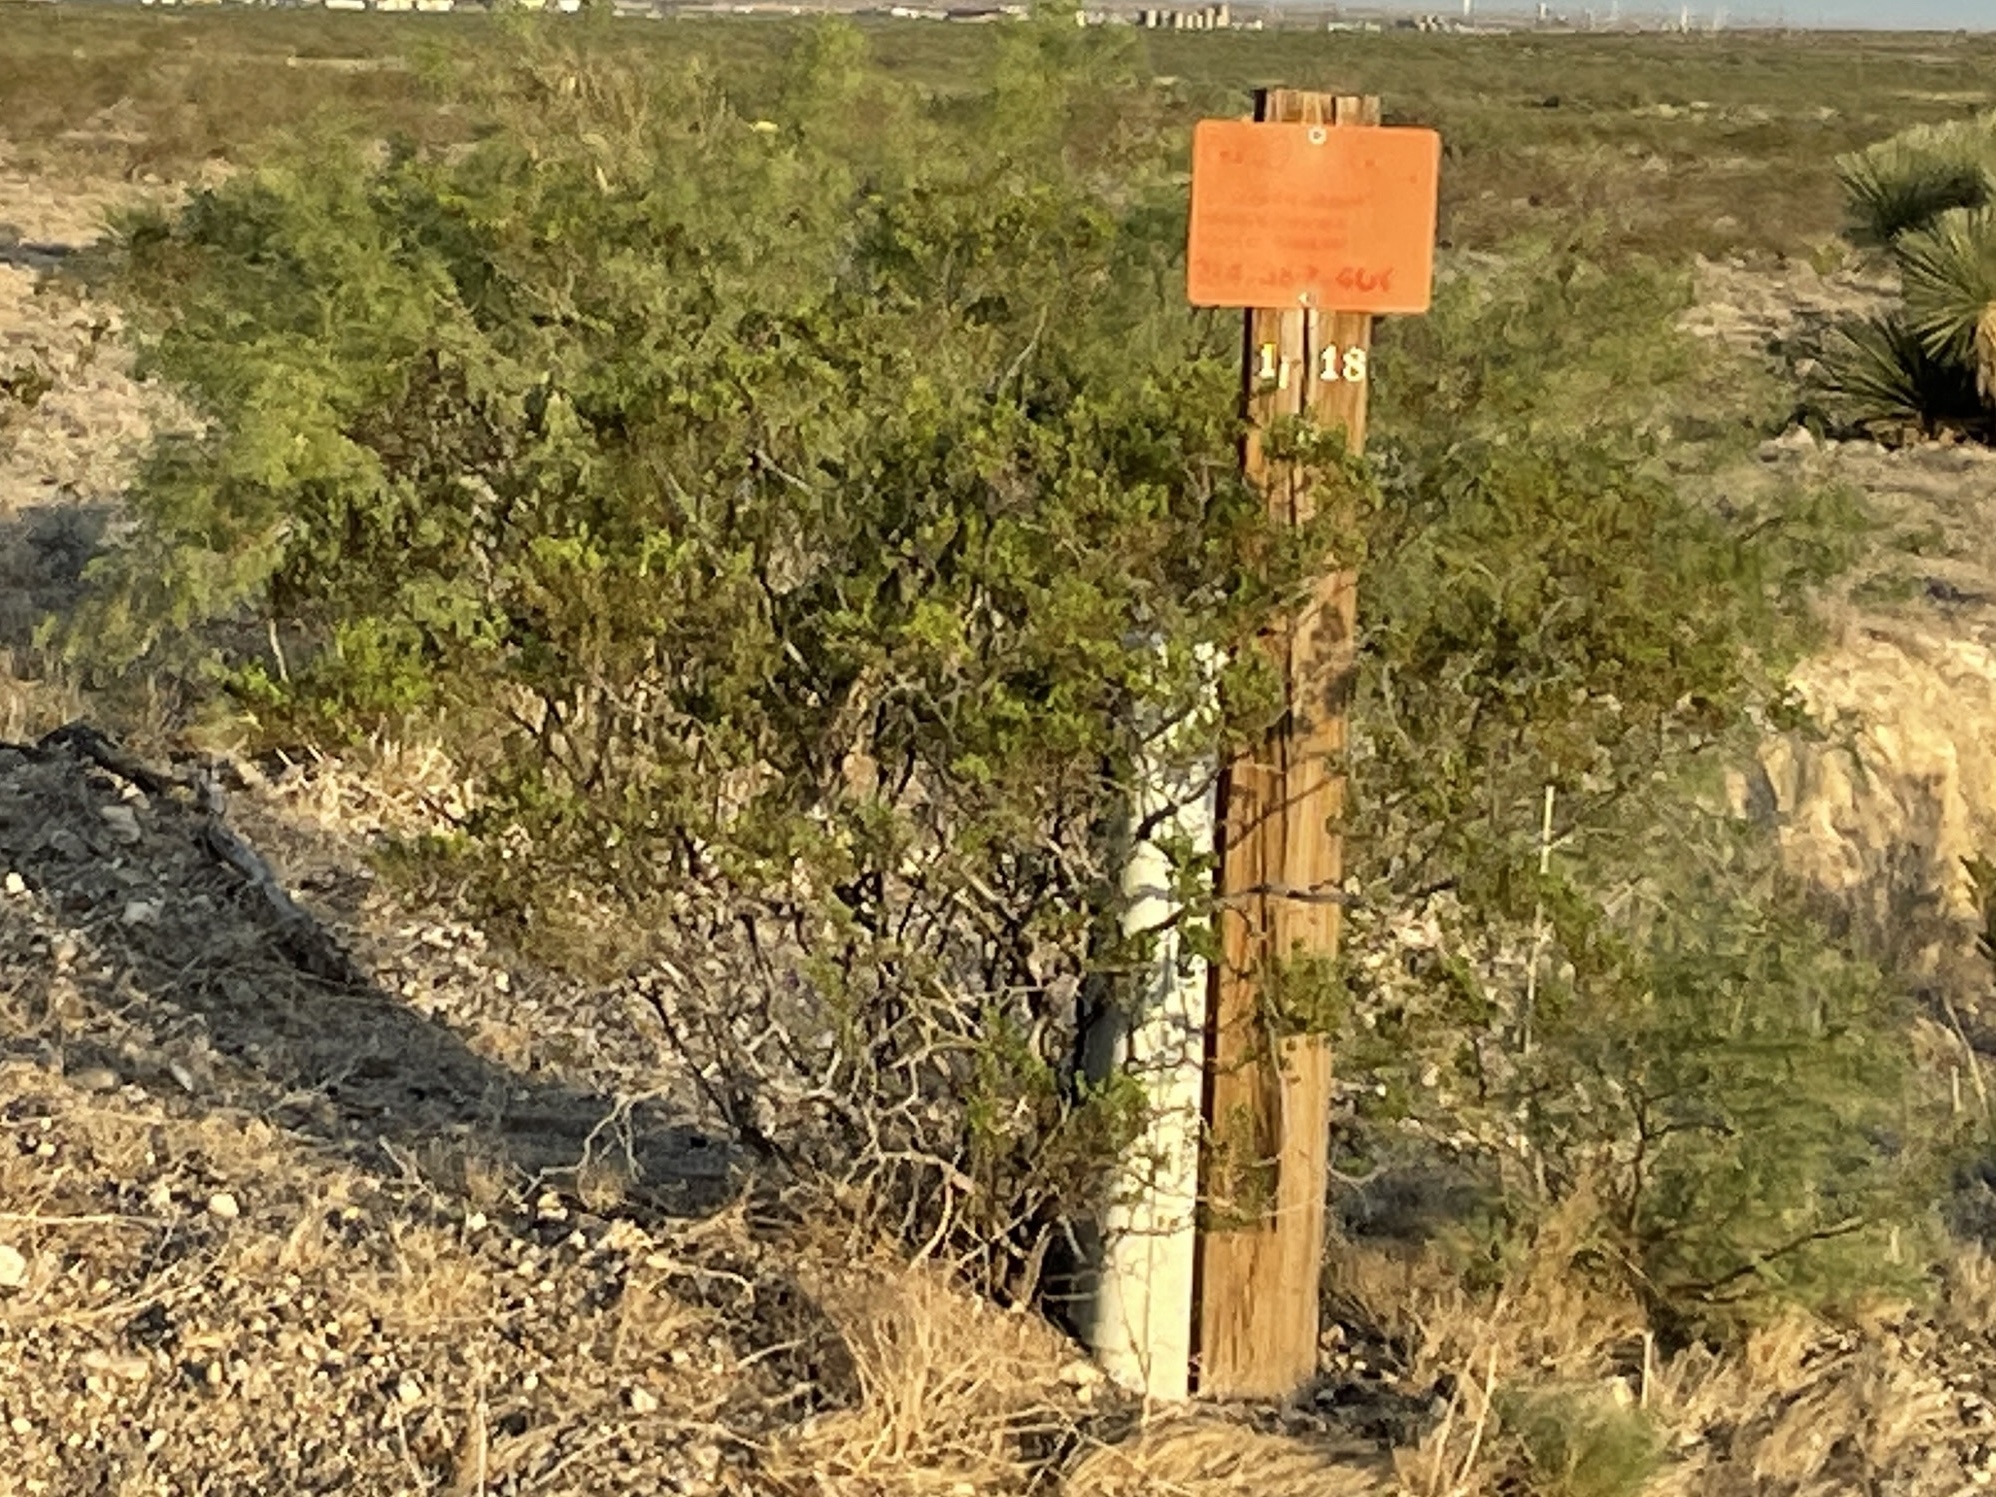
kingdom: Plantae
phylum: Tracheophyta
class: Magnoliopsida
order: Zygophyllales
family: Zygophyllaceae
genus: Larrea
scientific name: Larrea tridentata
